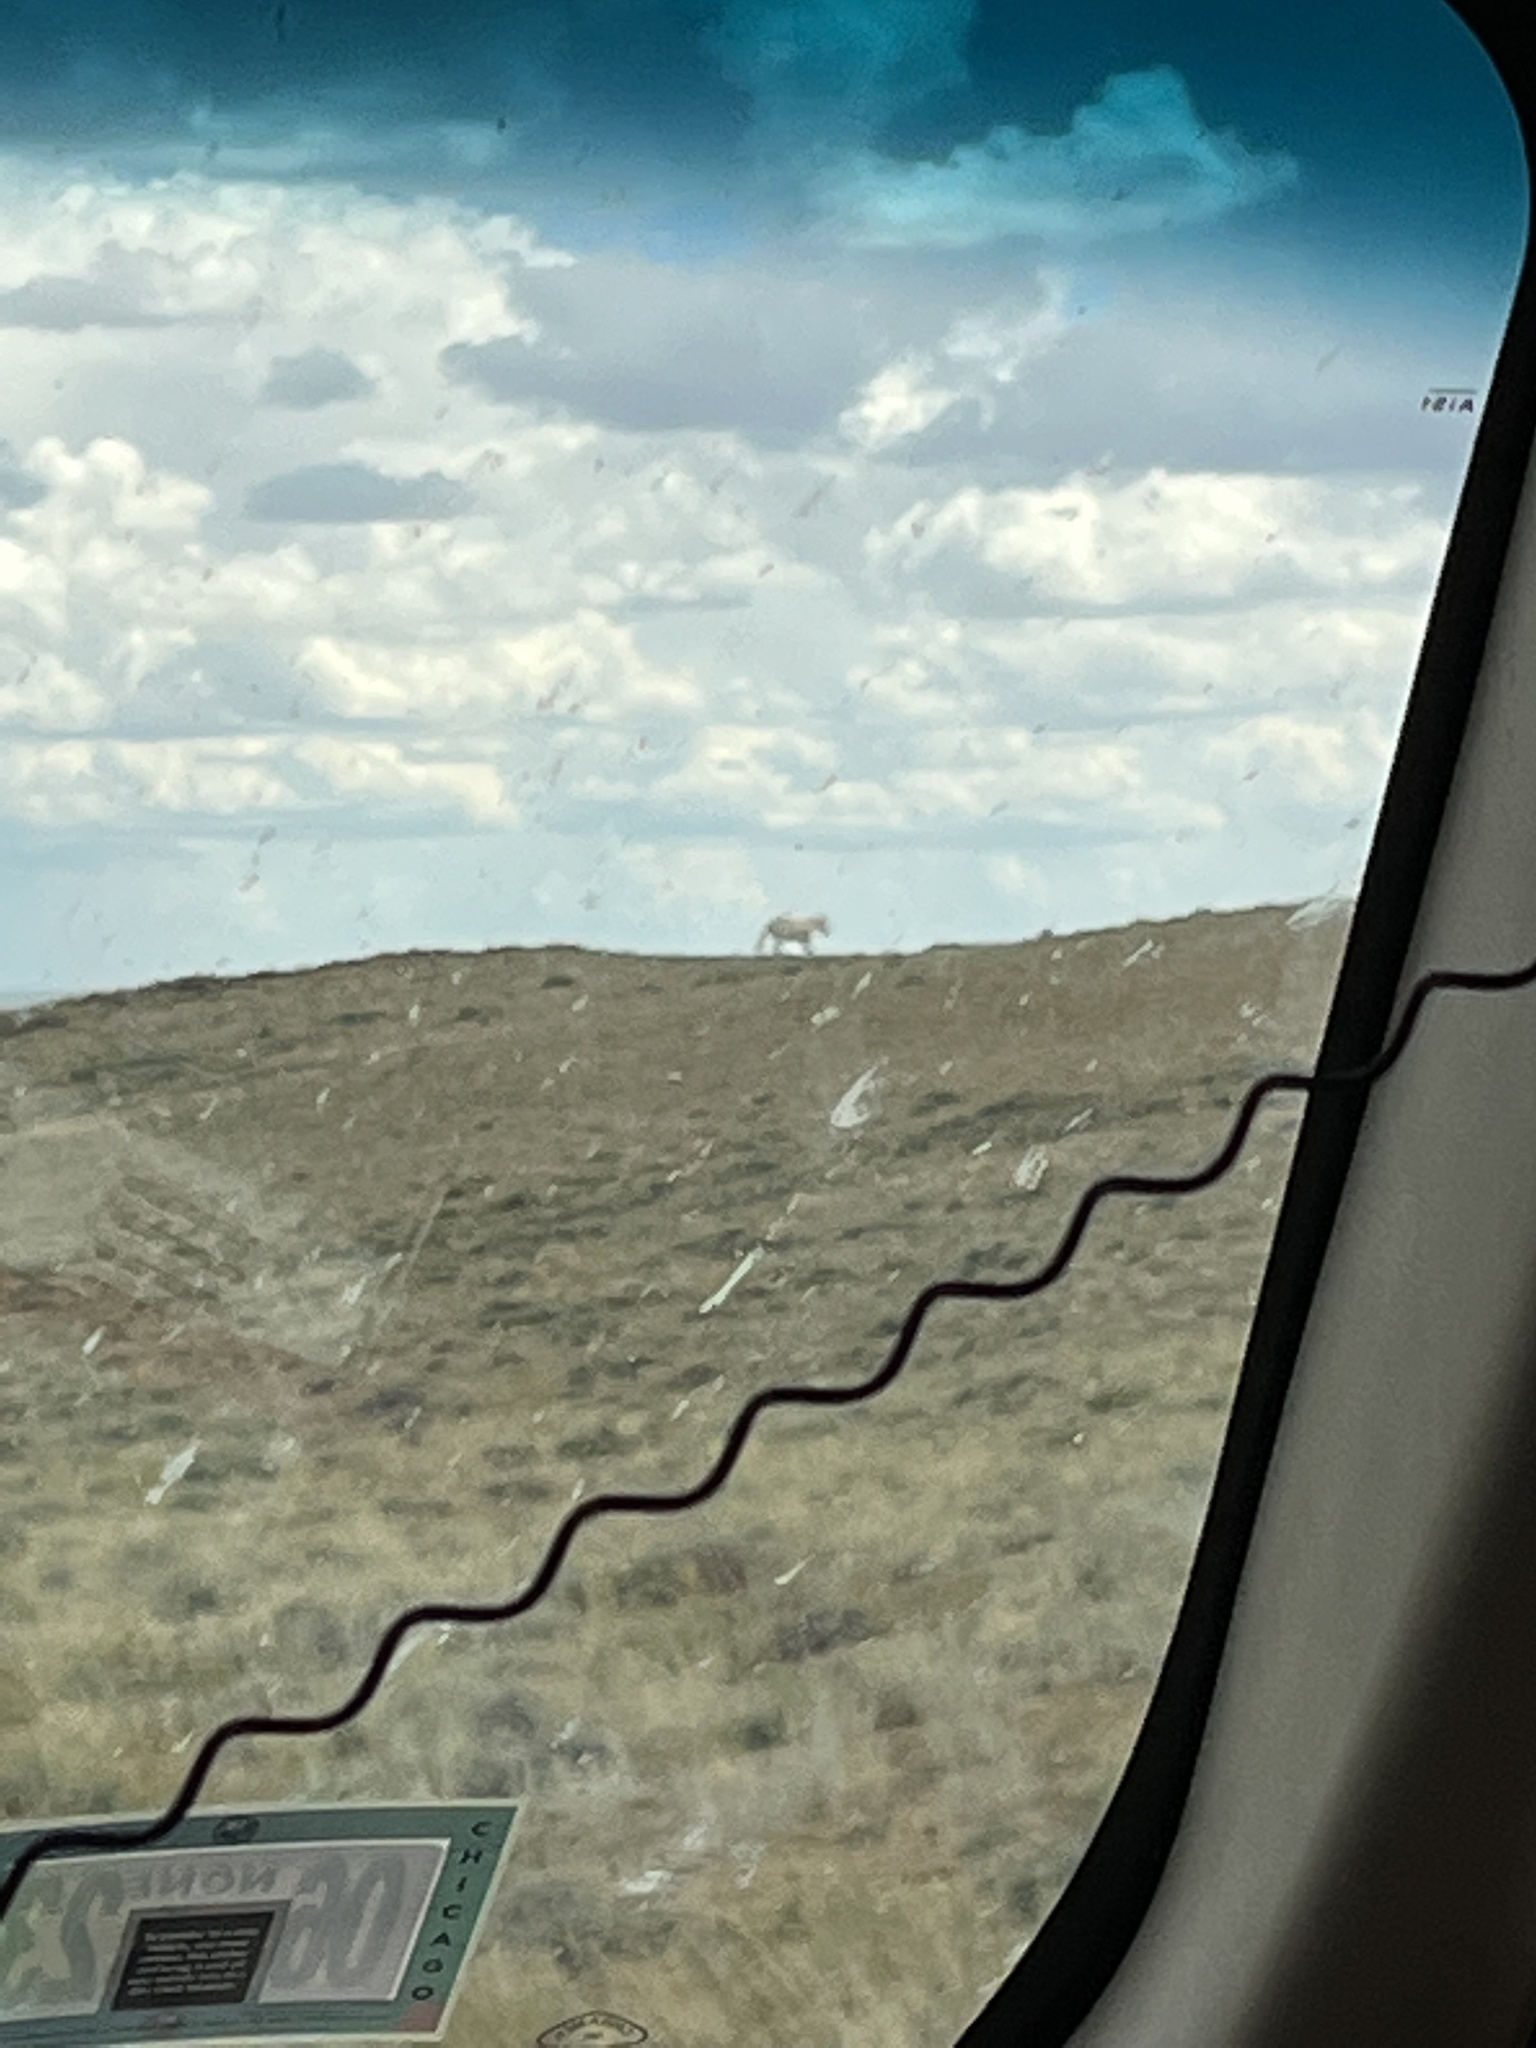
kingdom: Animalia
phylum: Chordata
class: Mammalia
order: Perissodactyla
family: Equidae
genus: Equus
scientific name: Equus caballus
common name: Horse
